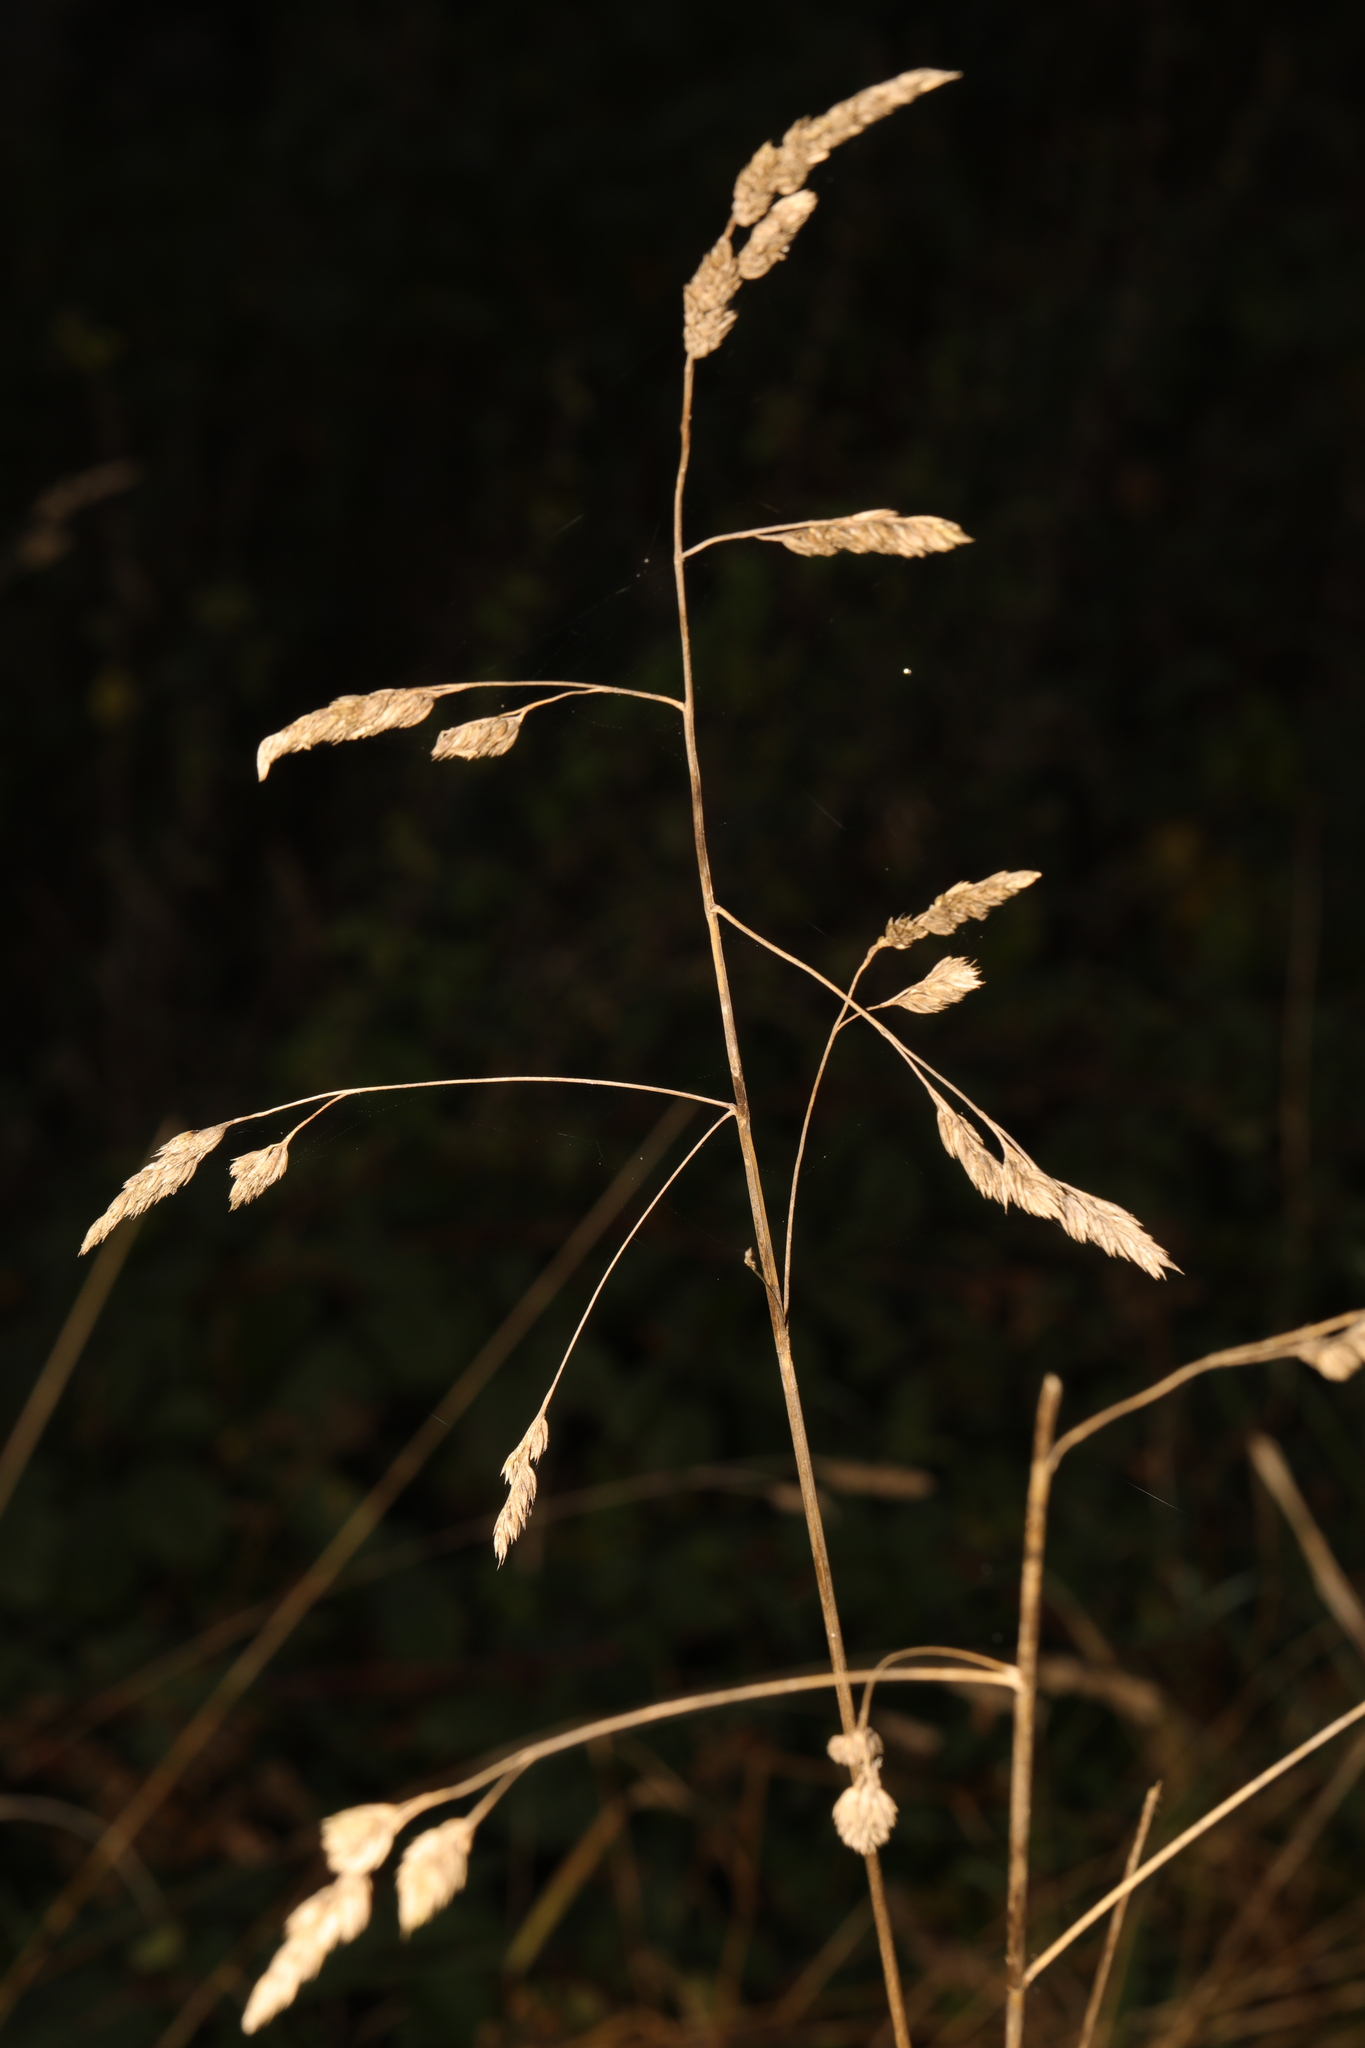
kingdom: Plantae
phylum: Tracheophyta
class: Liliopsida
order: Poales
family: Poaceae
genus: Dactylis
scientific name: Dactylis glomerata
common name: Orchardgrass
